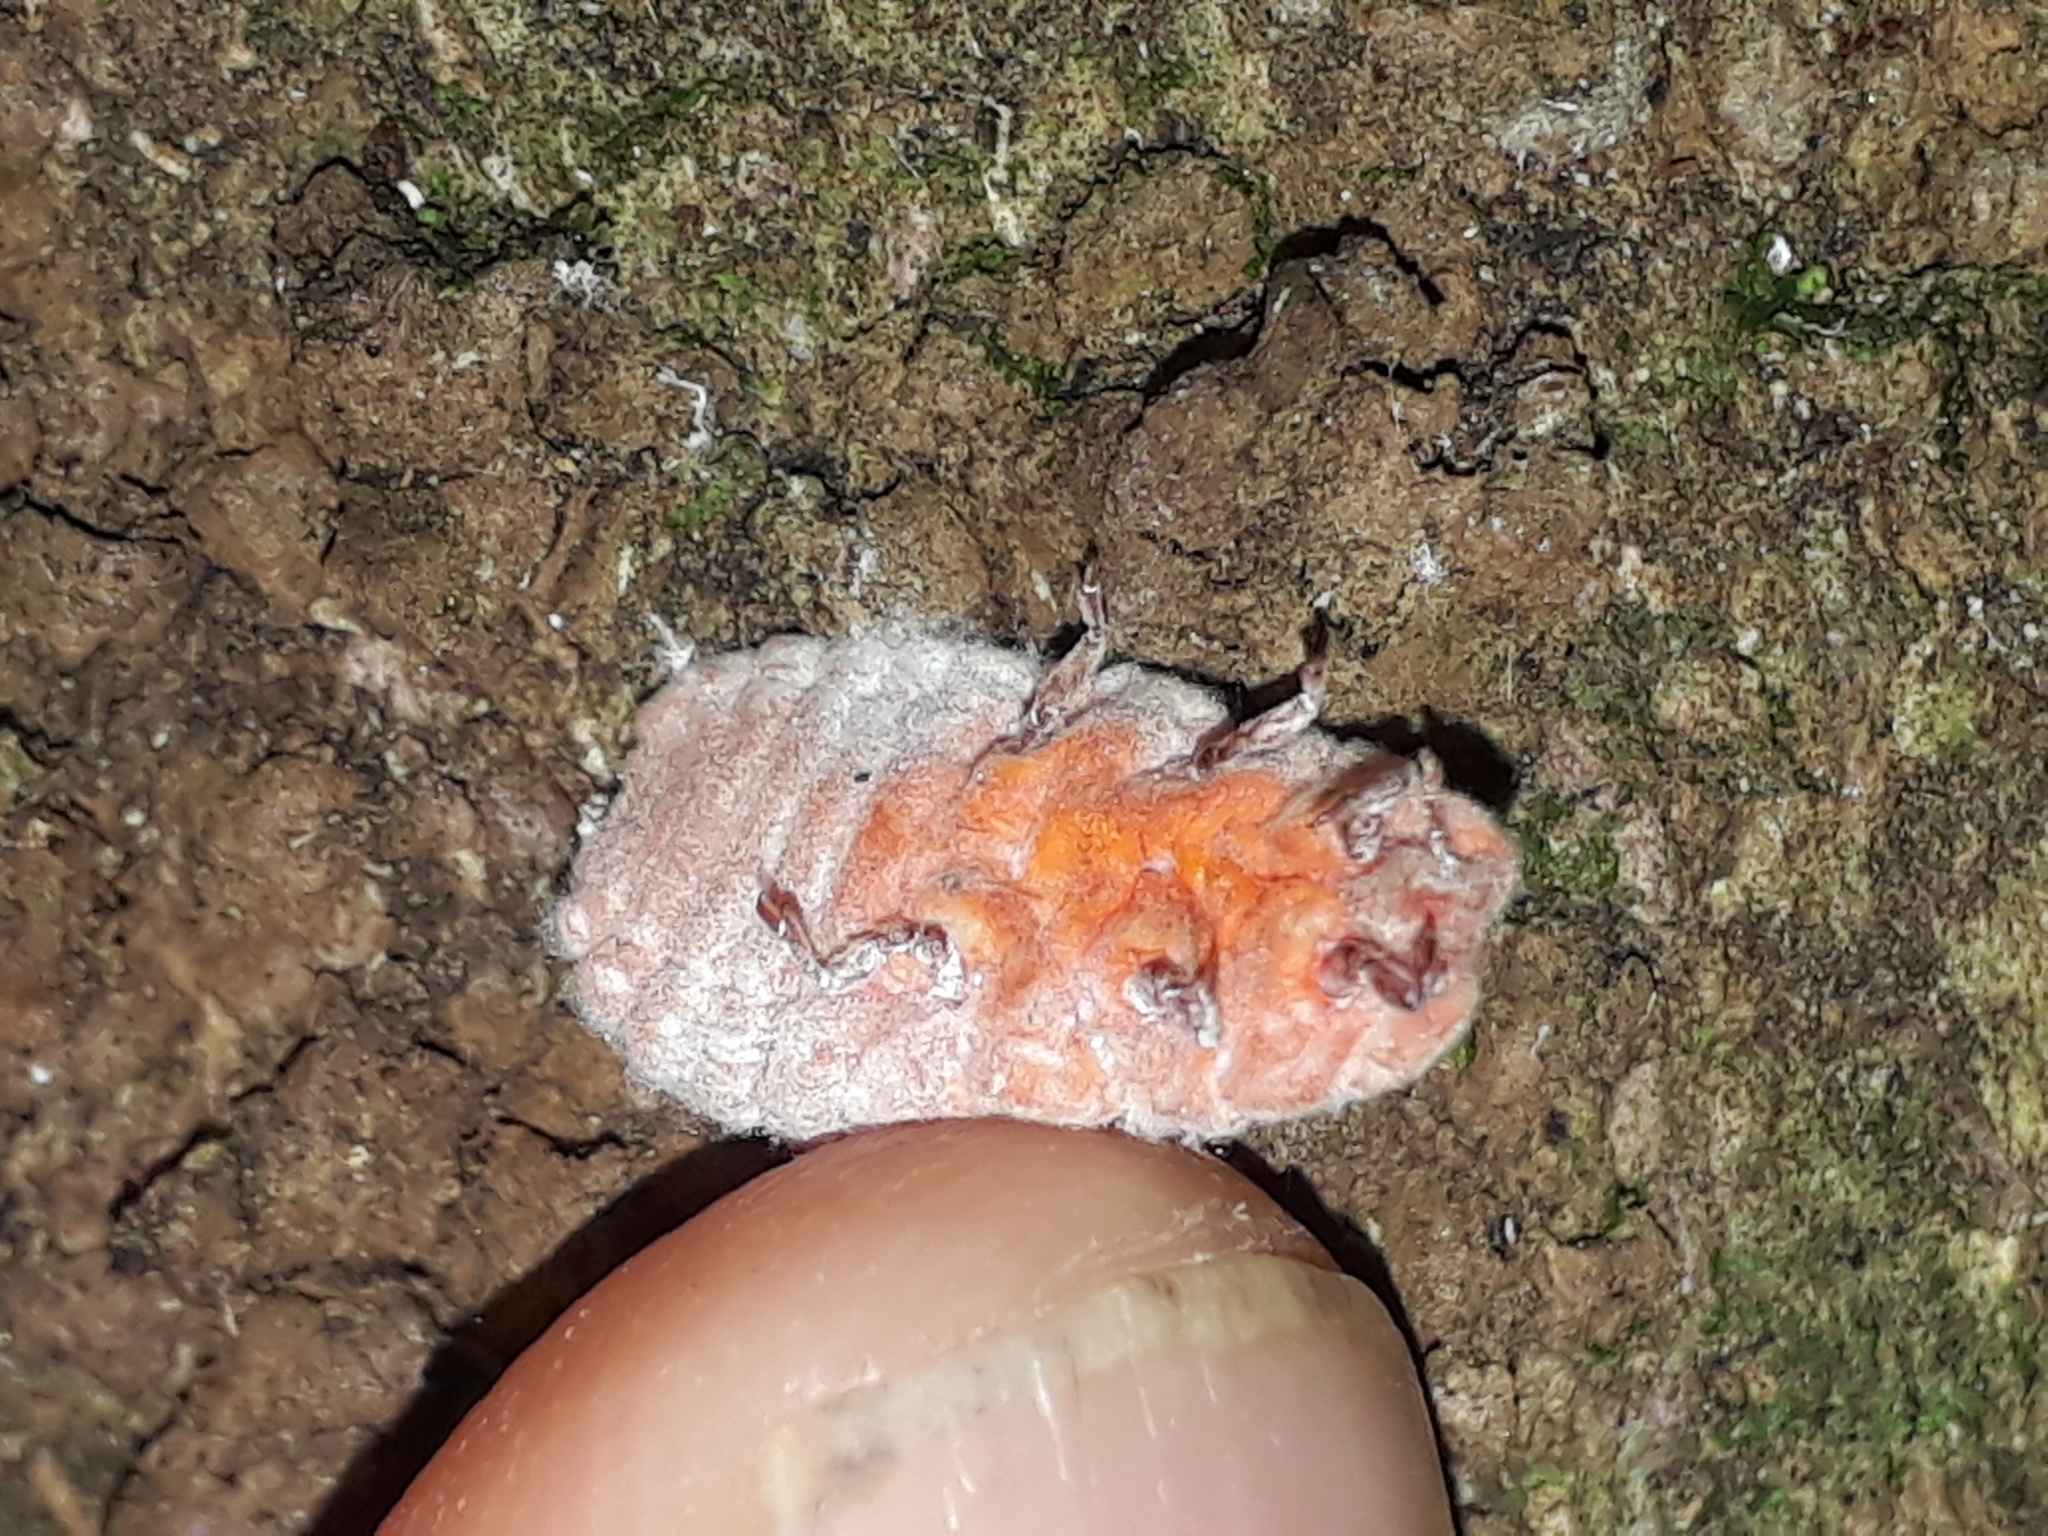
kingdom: Animalia
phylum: Arthropoda
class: Insecta
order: Hemiptera
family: Margarodidae
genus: Coelostomidia
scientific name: Coelostomidia zealandica
